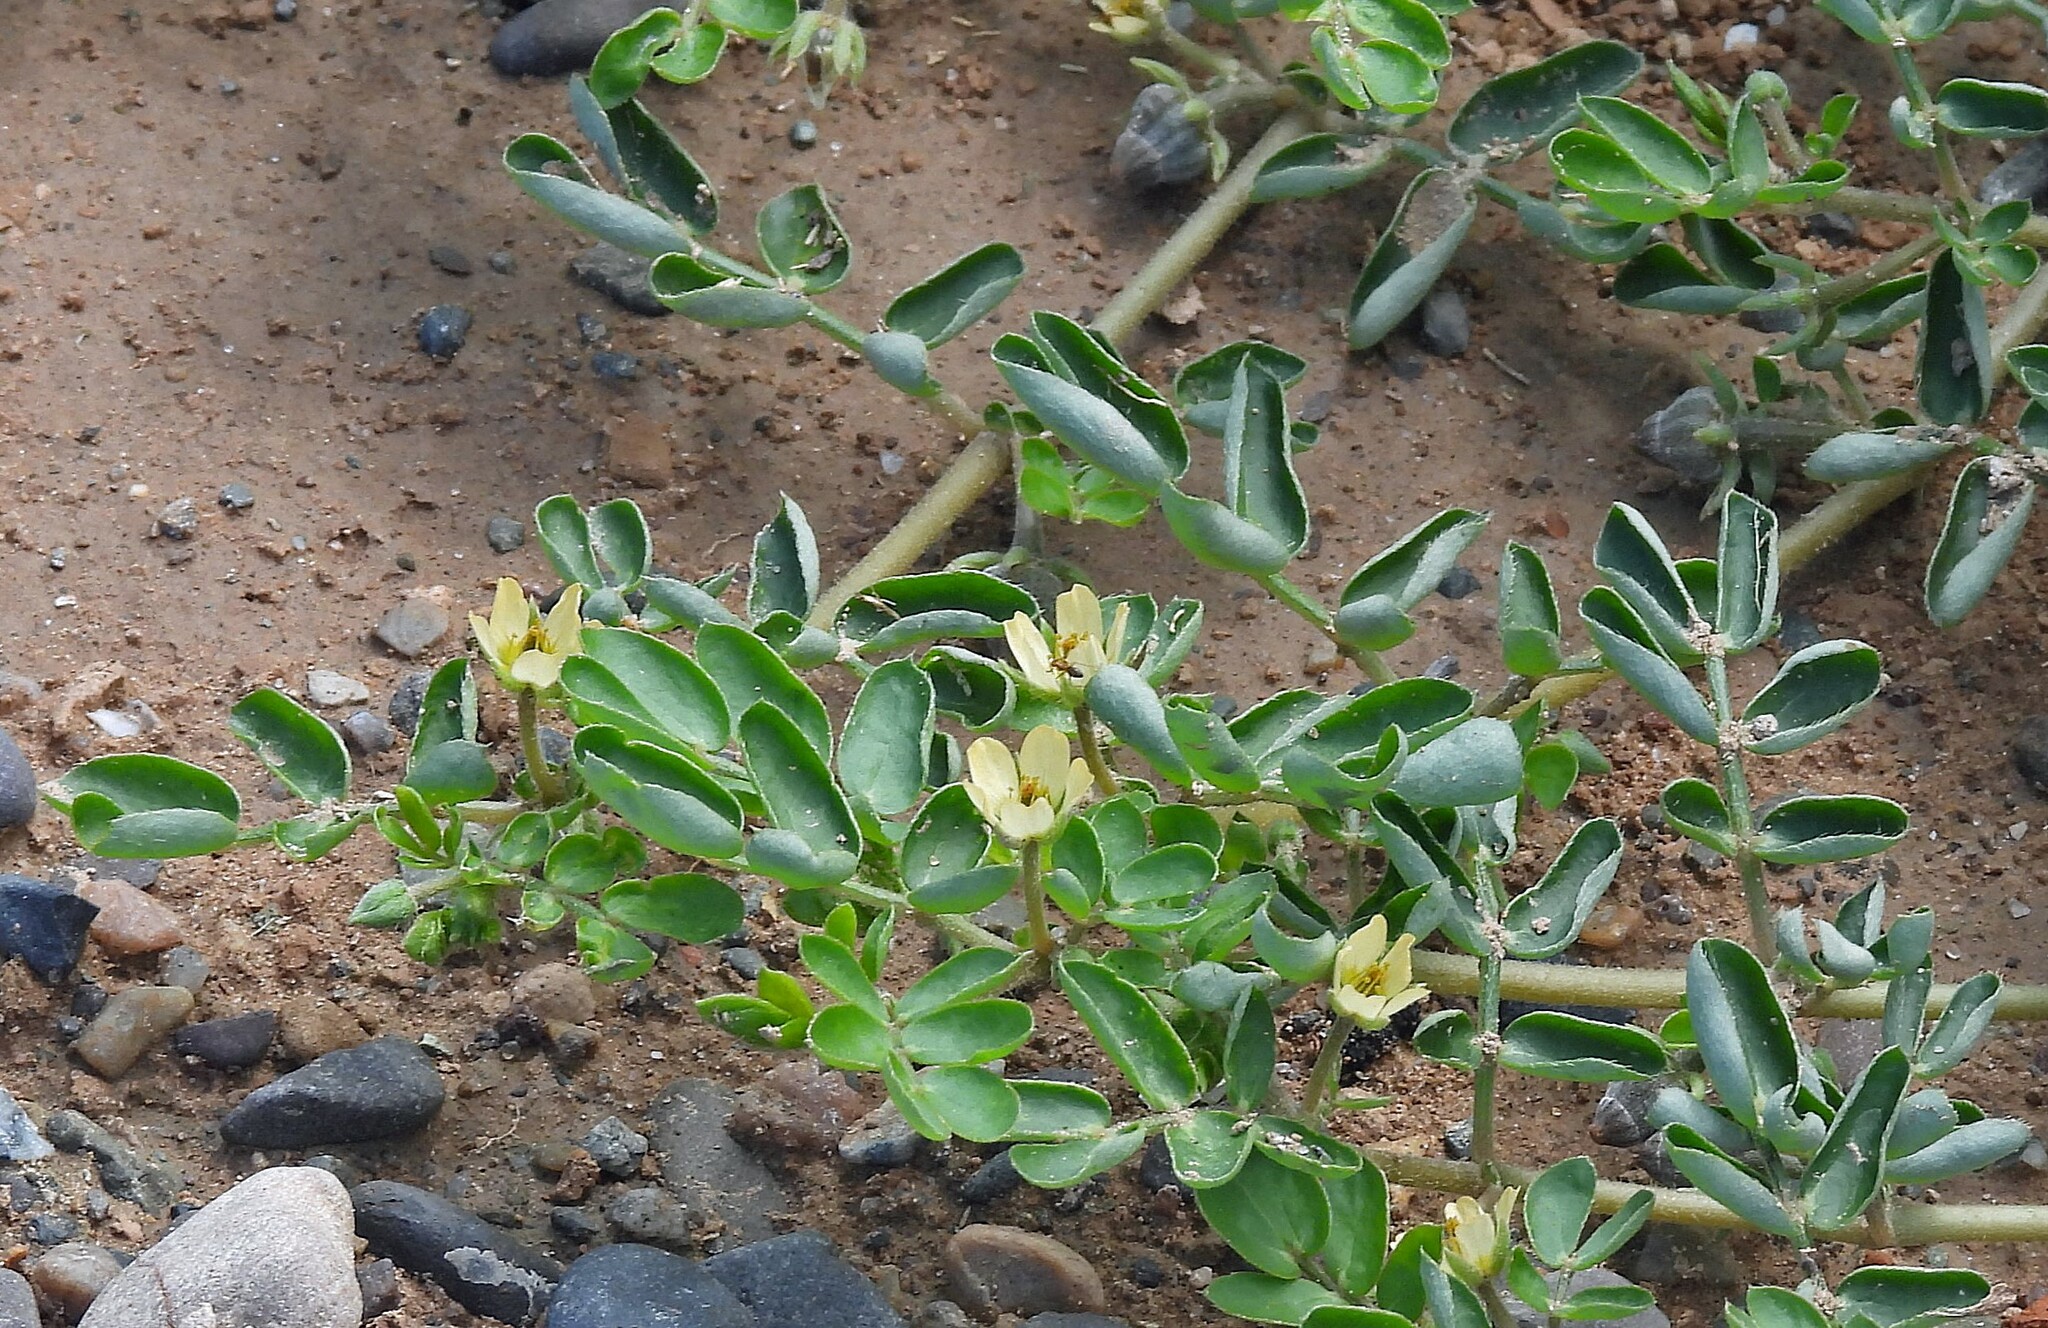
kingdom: Plantae
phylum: Tracheophyta
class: Magnoliopsida
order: Zygophyllales
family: Zygophyllaceae
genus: Kallstroemia
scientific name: Kallstroemia tucumanensis
